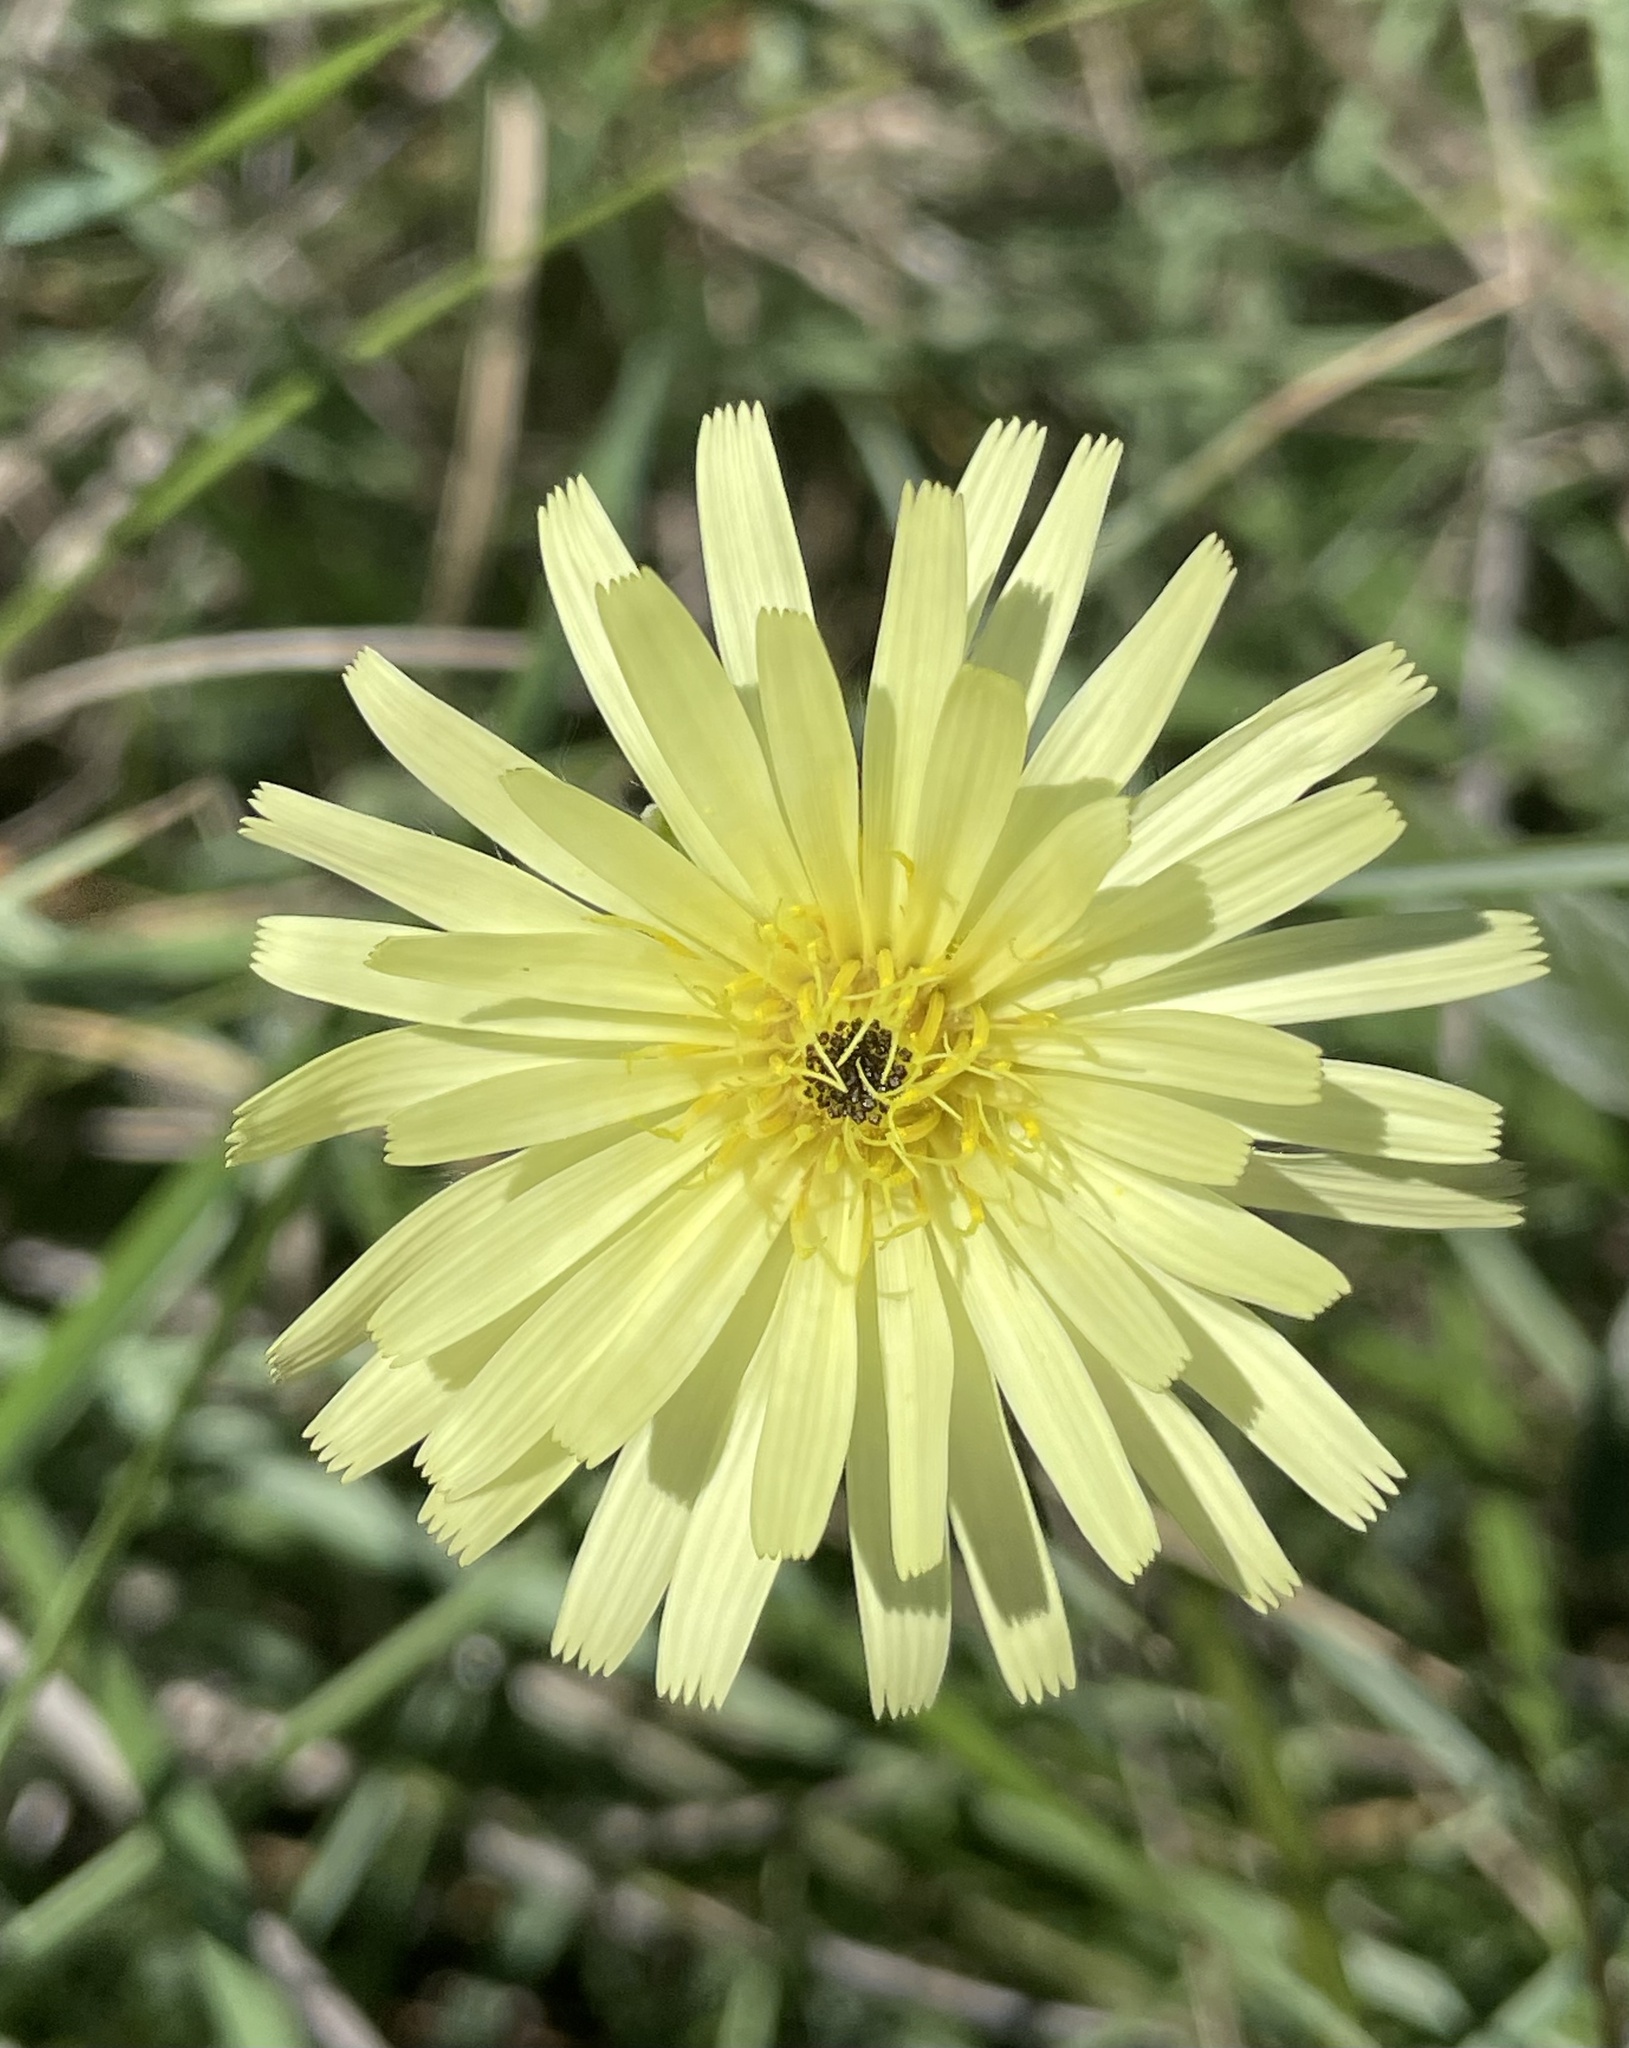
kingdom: Plantae
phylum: Tracheophyta
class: Magnoliopsida
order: Asterales
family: Asteraceae
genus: Urospermum
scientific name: Urospermum dalechampii
